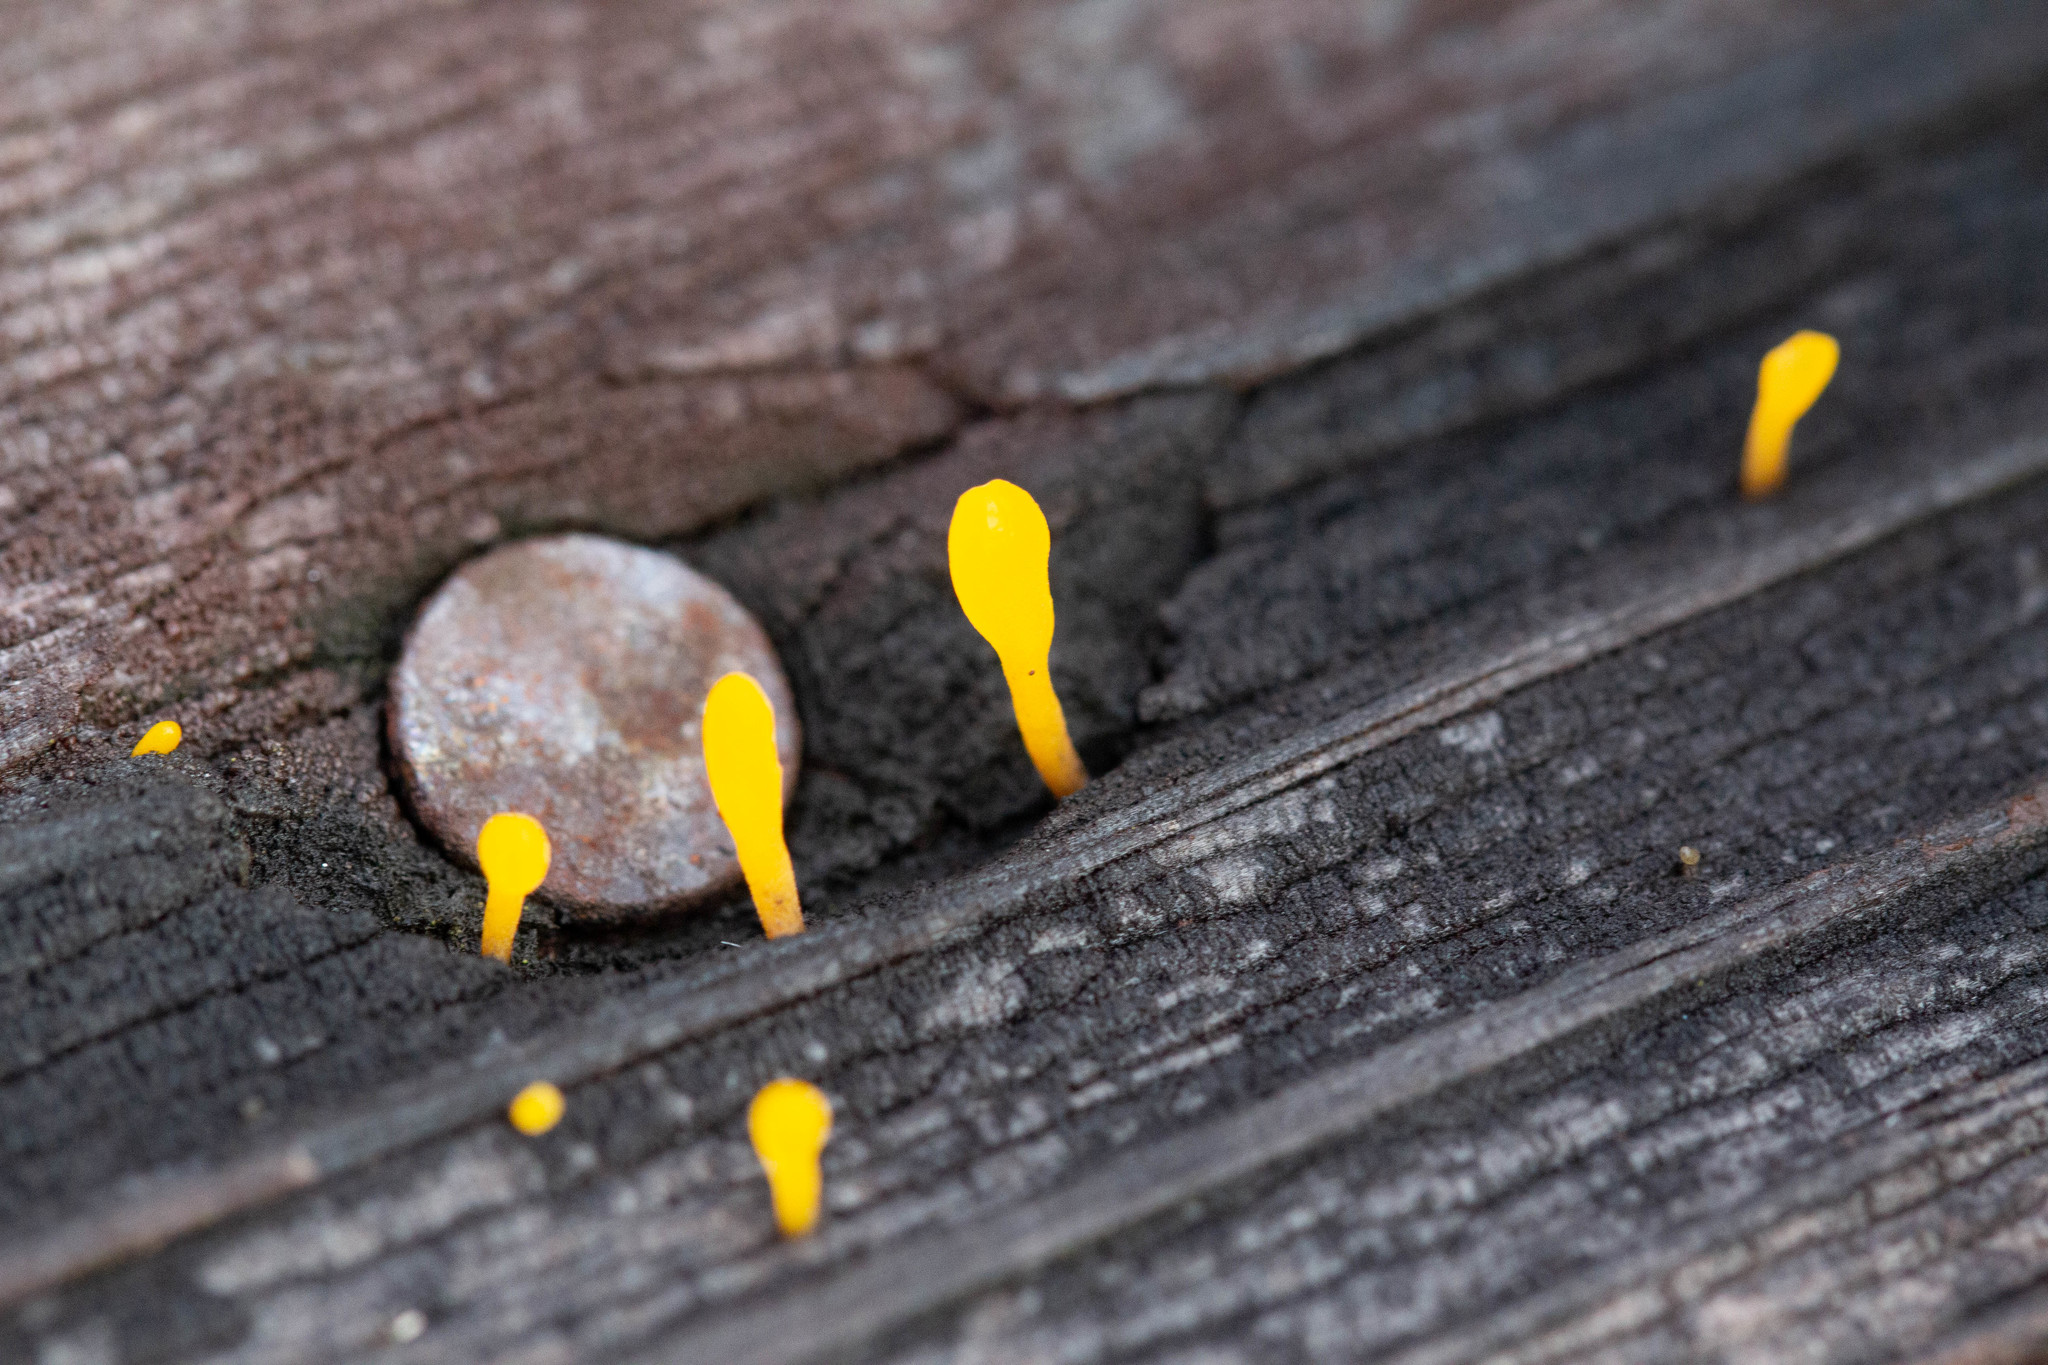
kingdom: Fungi
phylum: Basidiomycota
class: Dacrymycetes
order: Dacrymycetales
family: Dacrymycetaceae
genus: Dacrymyces
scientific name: Dacrymyces spathularius
